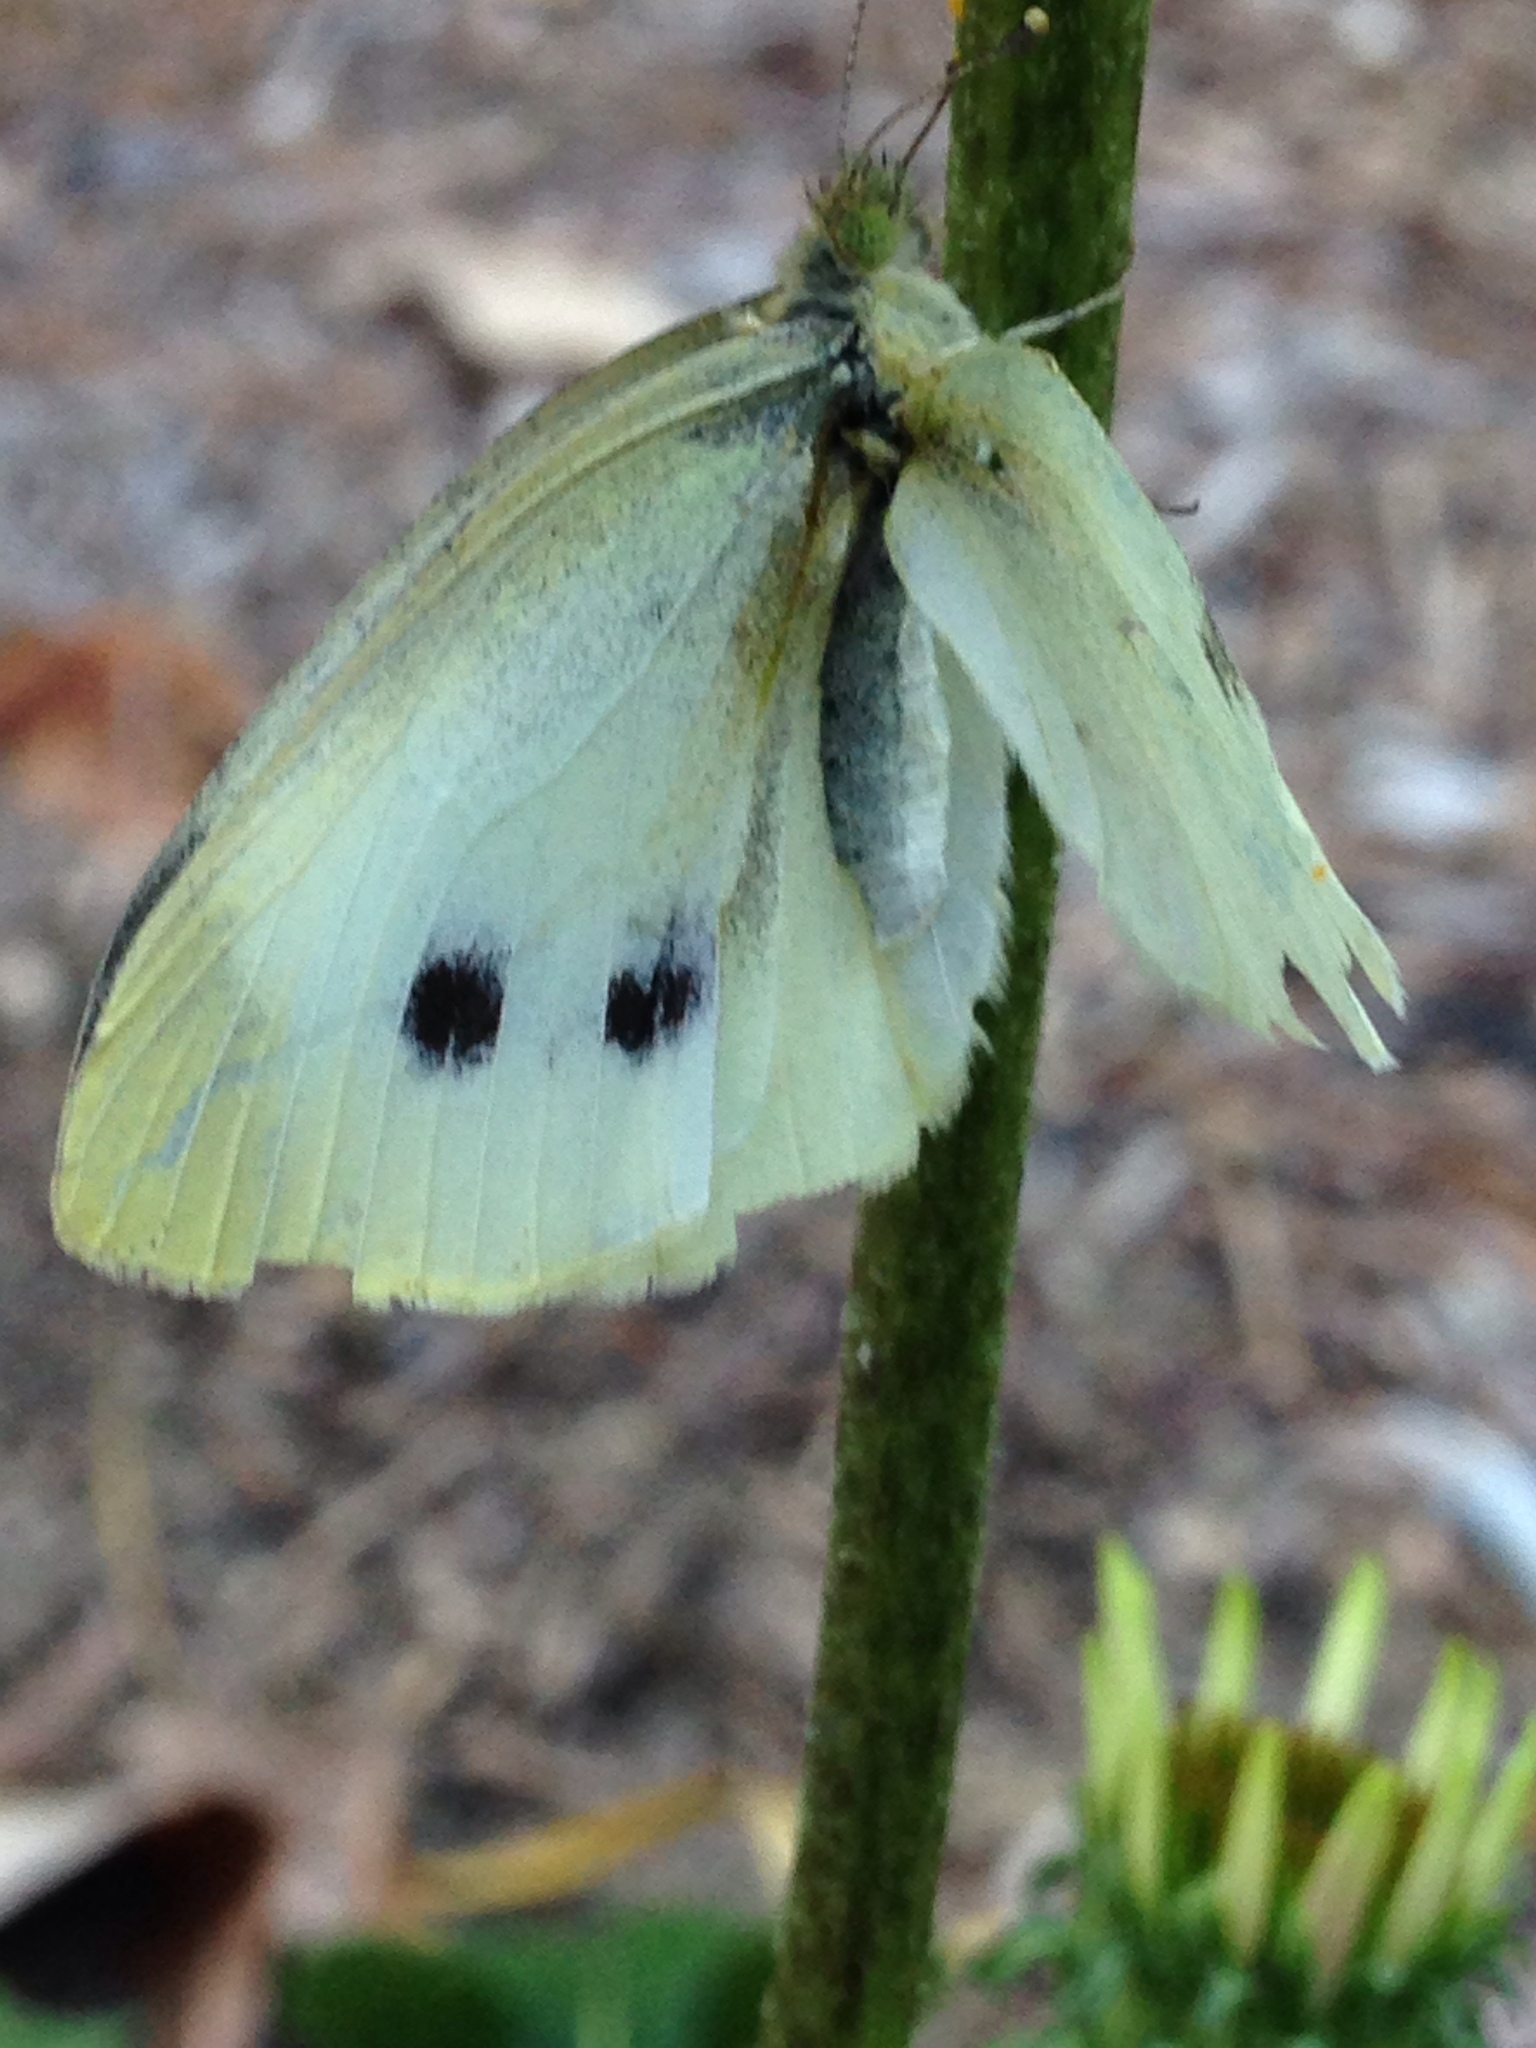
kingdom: Animalia
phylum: Arthropoda
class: Insecta
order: Lepidoptera
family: Pieridae
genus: Pieris
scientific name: Pieris rapae
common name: Small white
